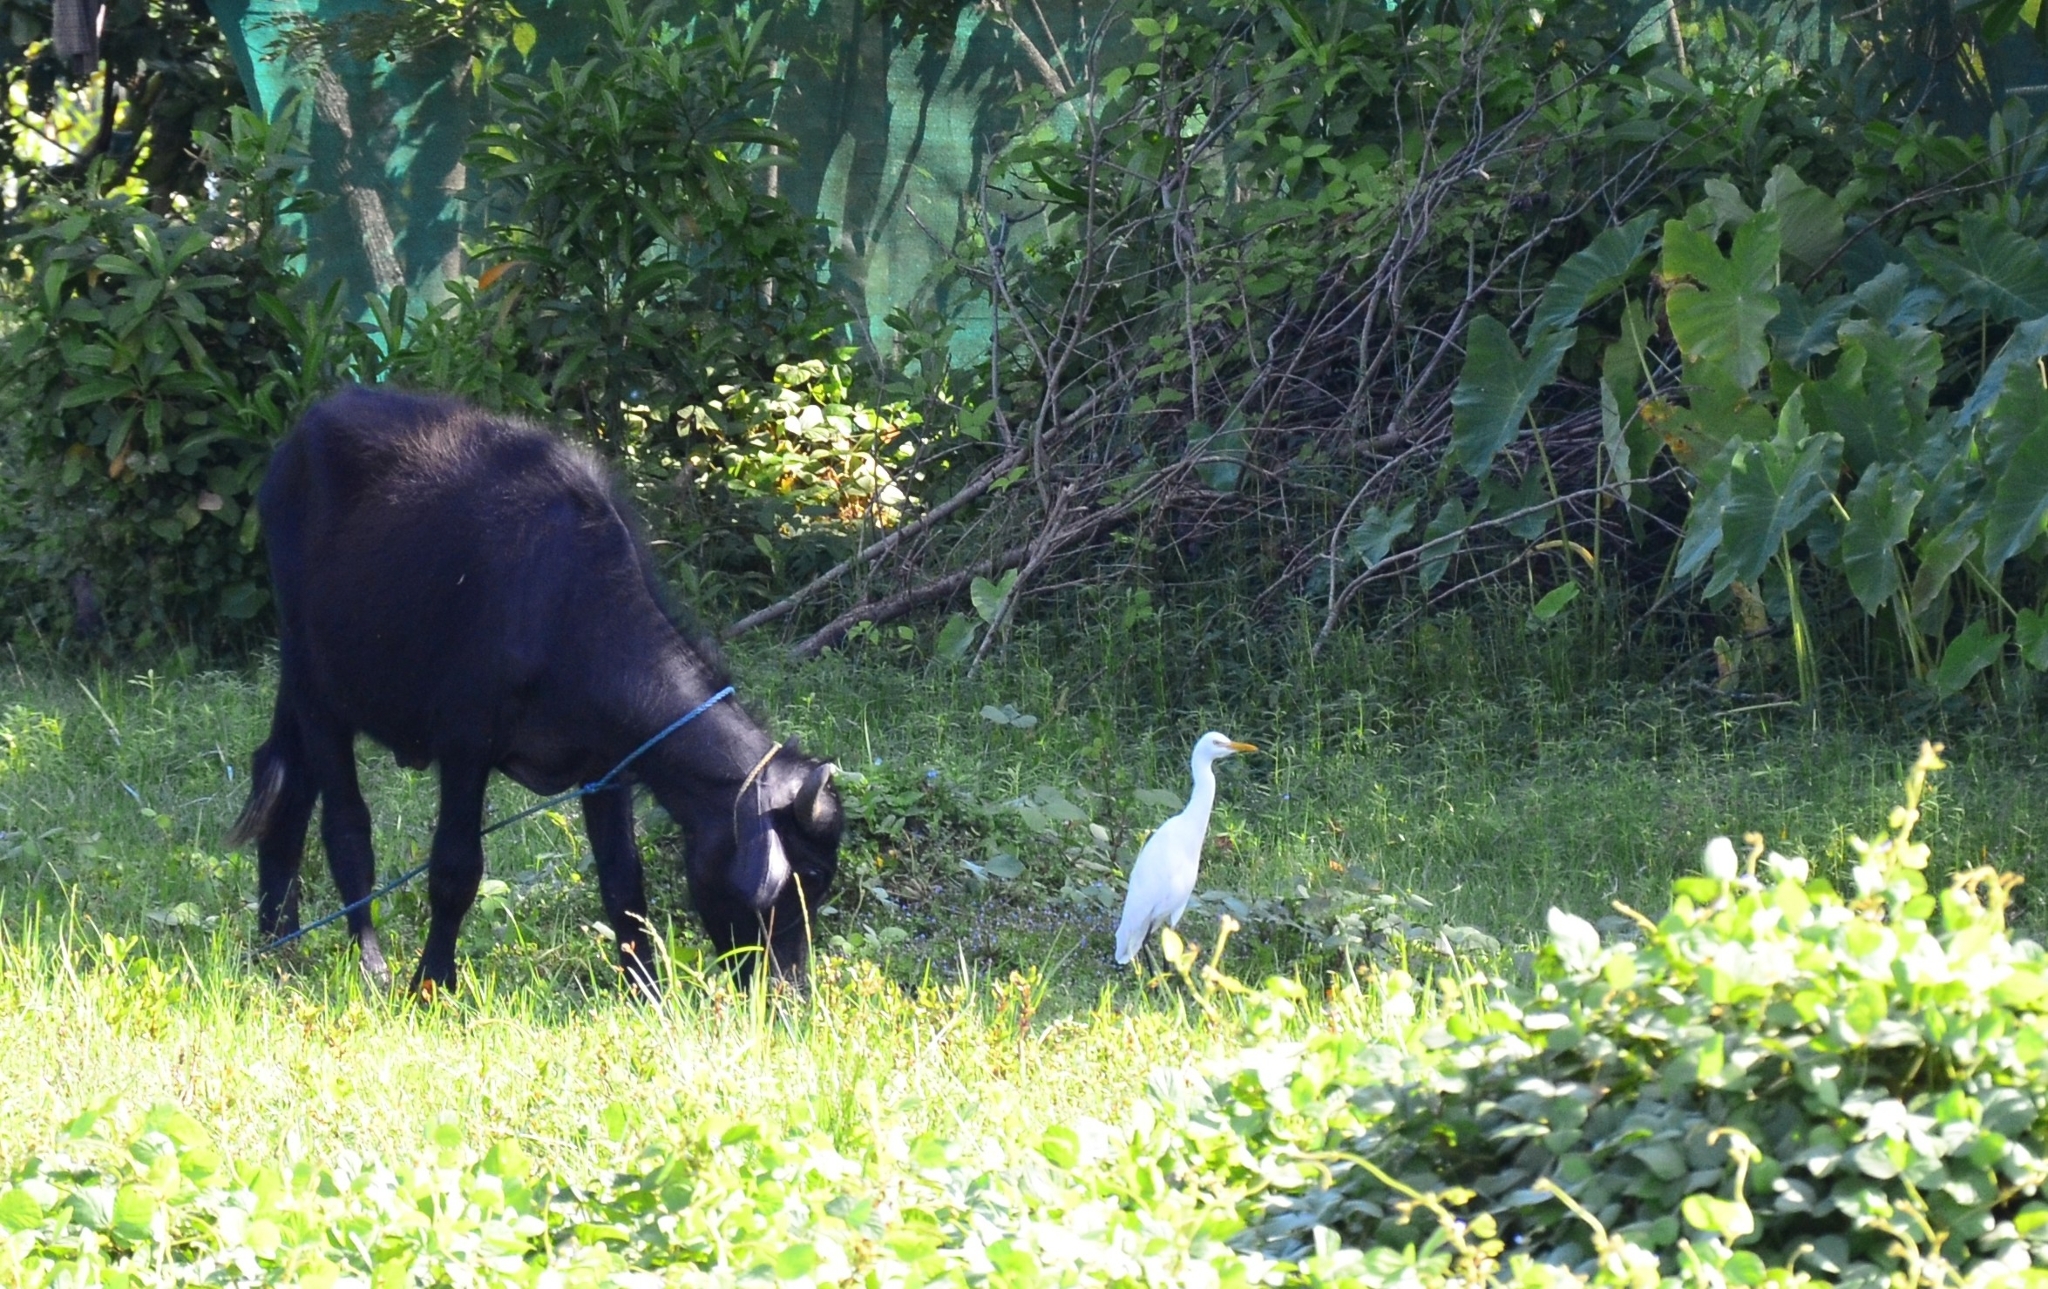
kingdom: Animalia
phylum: Chordata
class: Aves
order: Pelecaniformes
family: Ardeidae
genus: Bubulcus
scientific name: Bubulcus coromandus
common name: Eastern cattle egret
